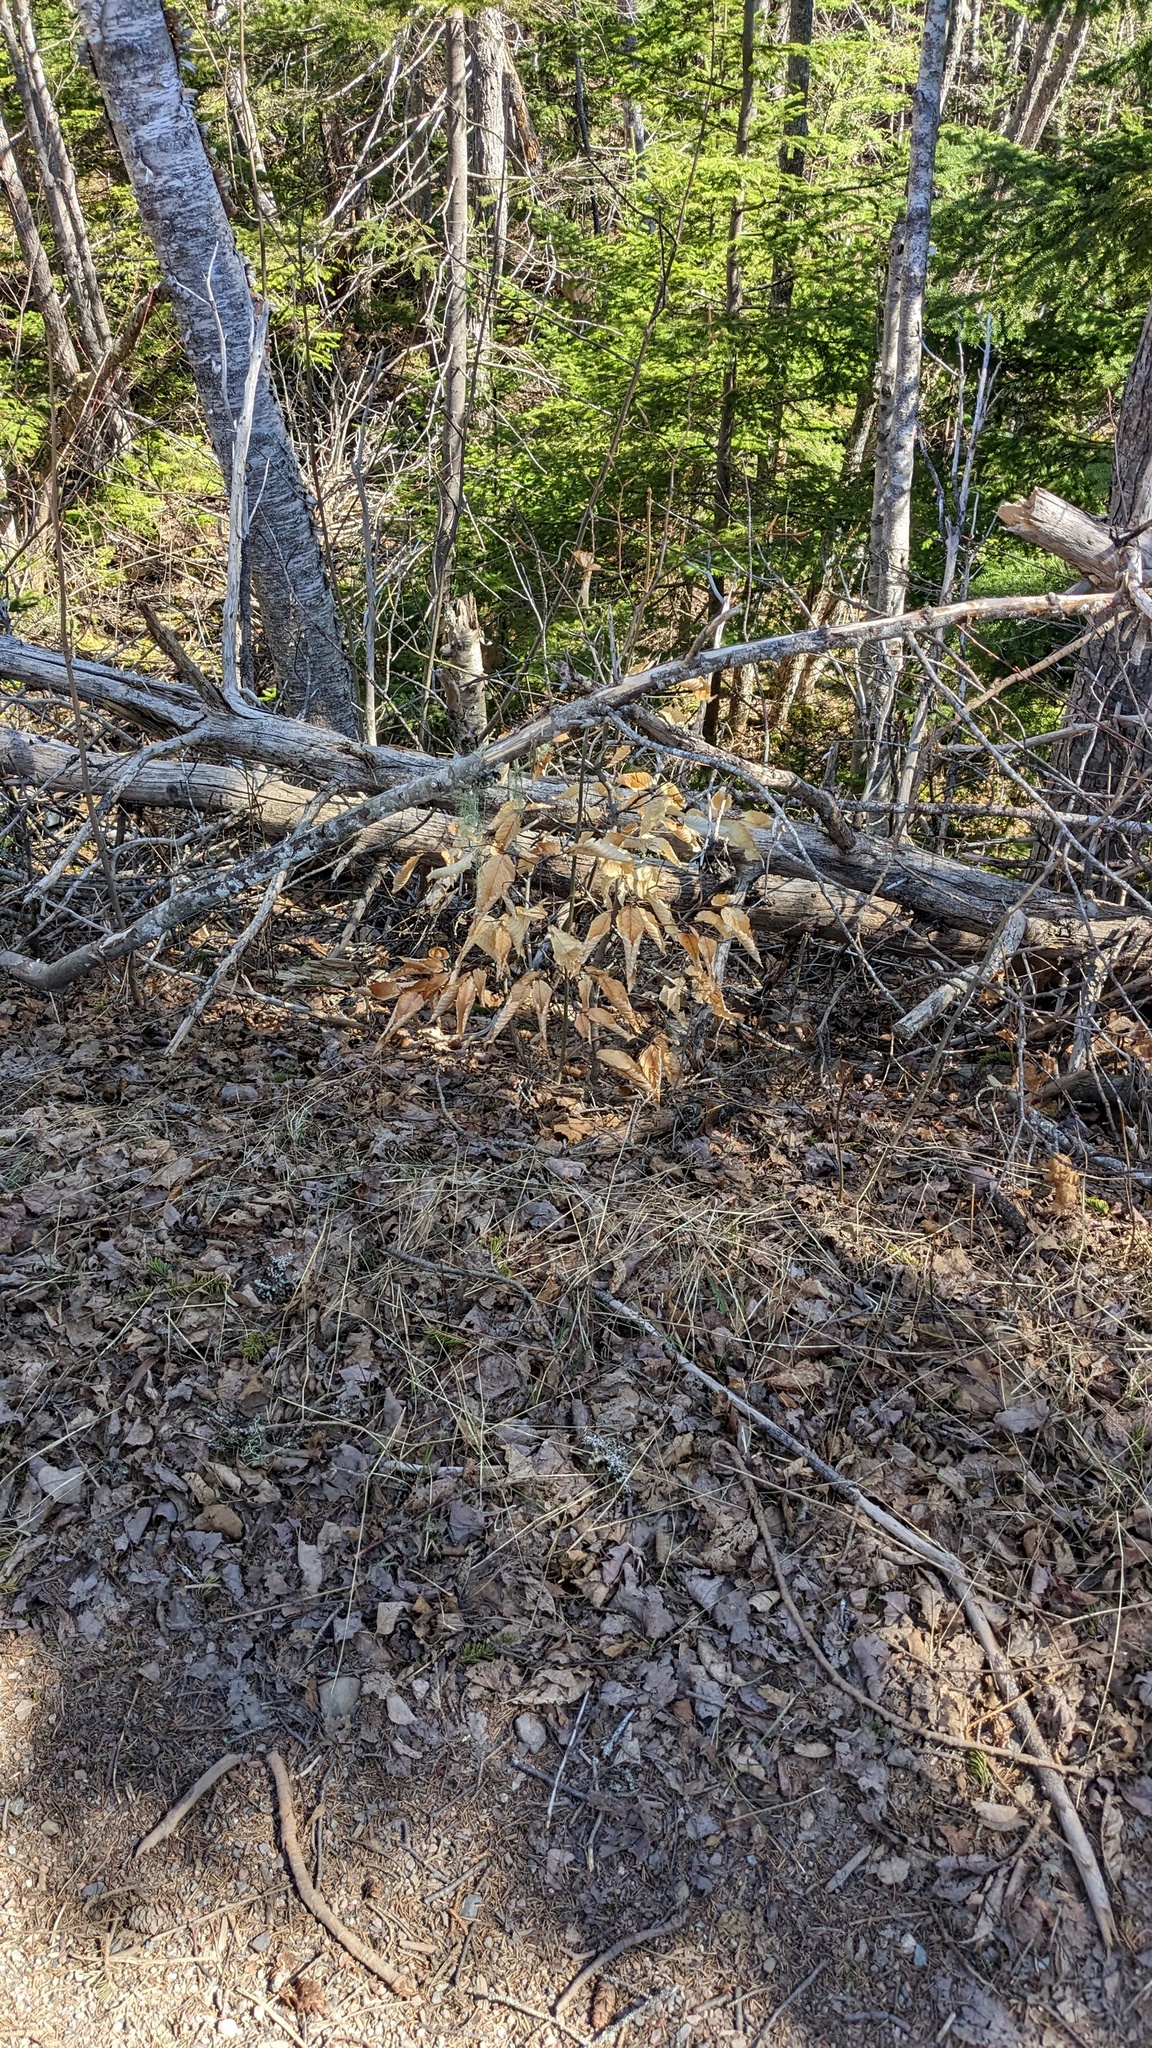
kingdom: Plantae
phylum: Tracheophyta
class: Magnoliopsida
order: Fagales
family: Fagaceae
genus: Fagus
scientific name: Fagus grandifolia
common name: American beech
